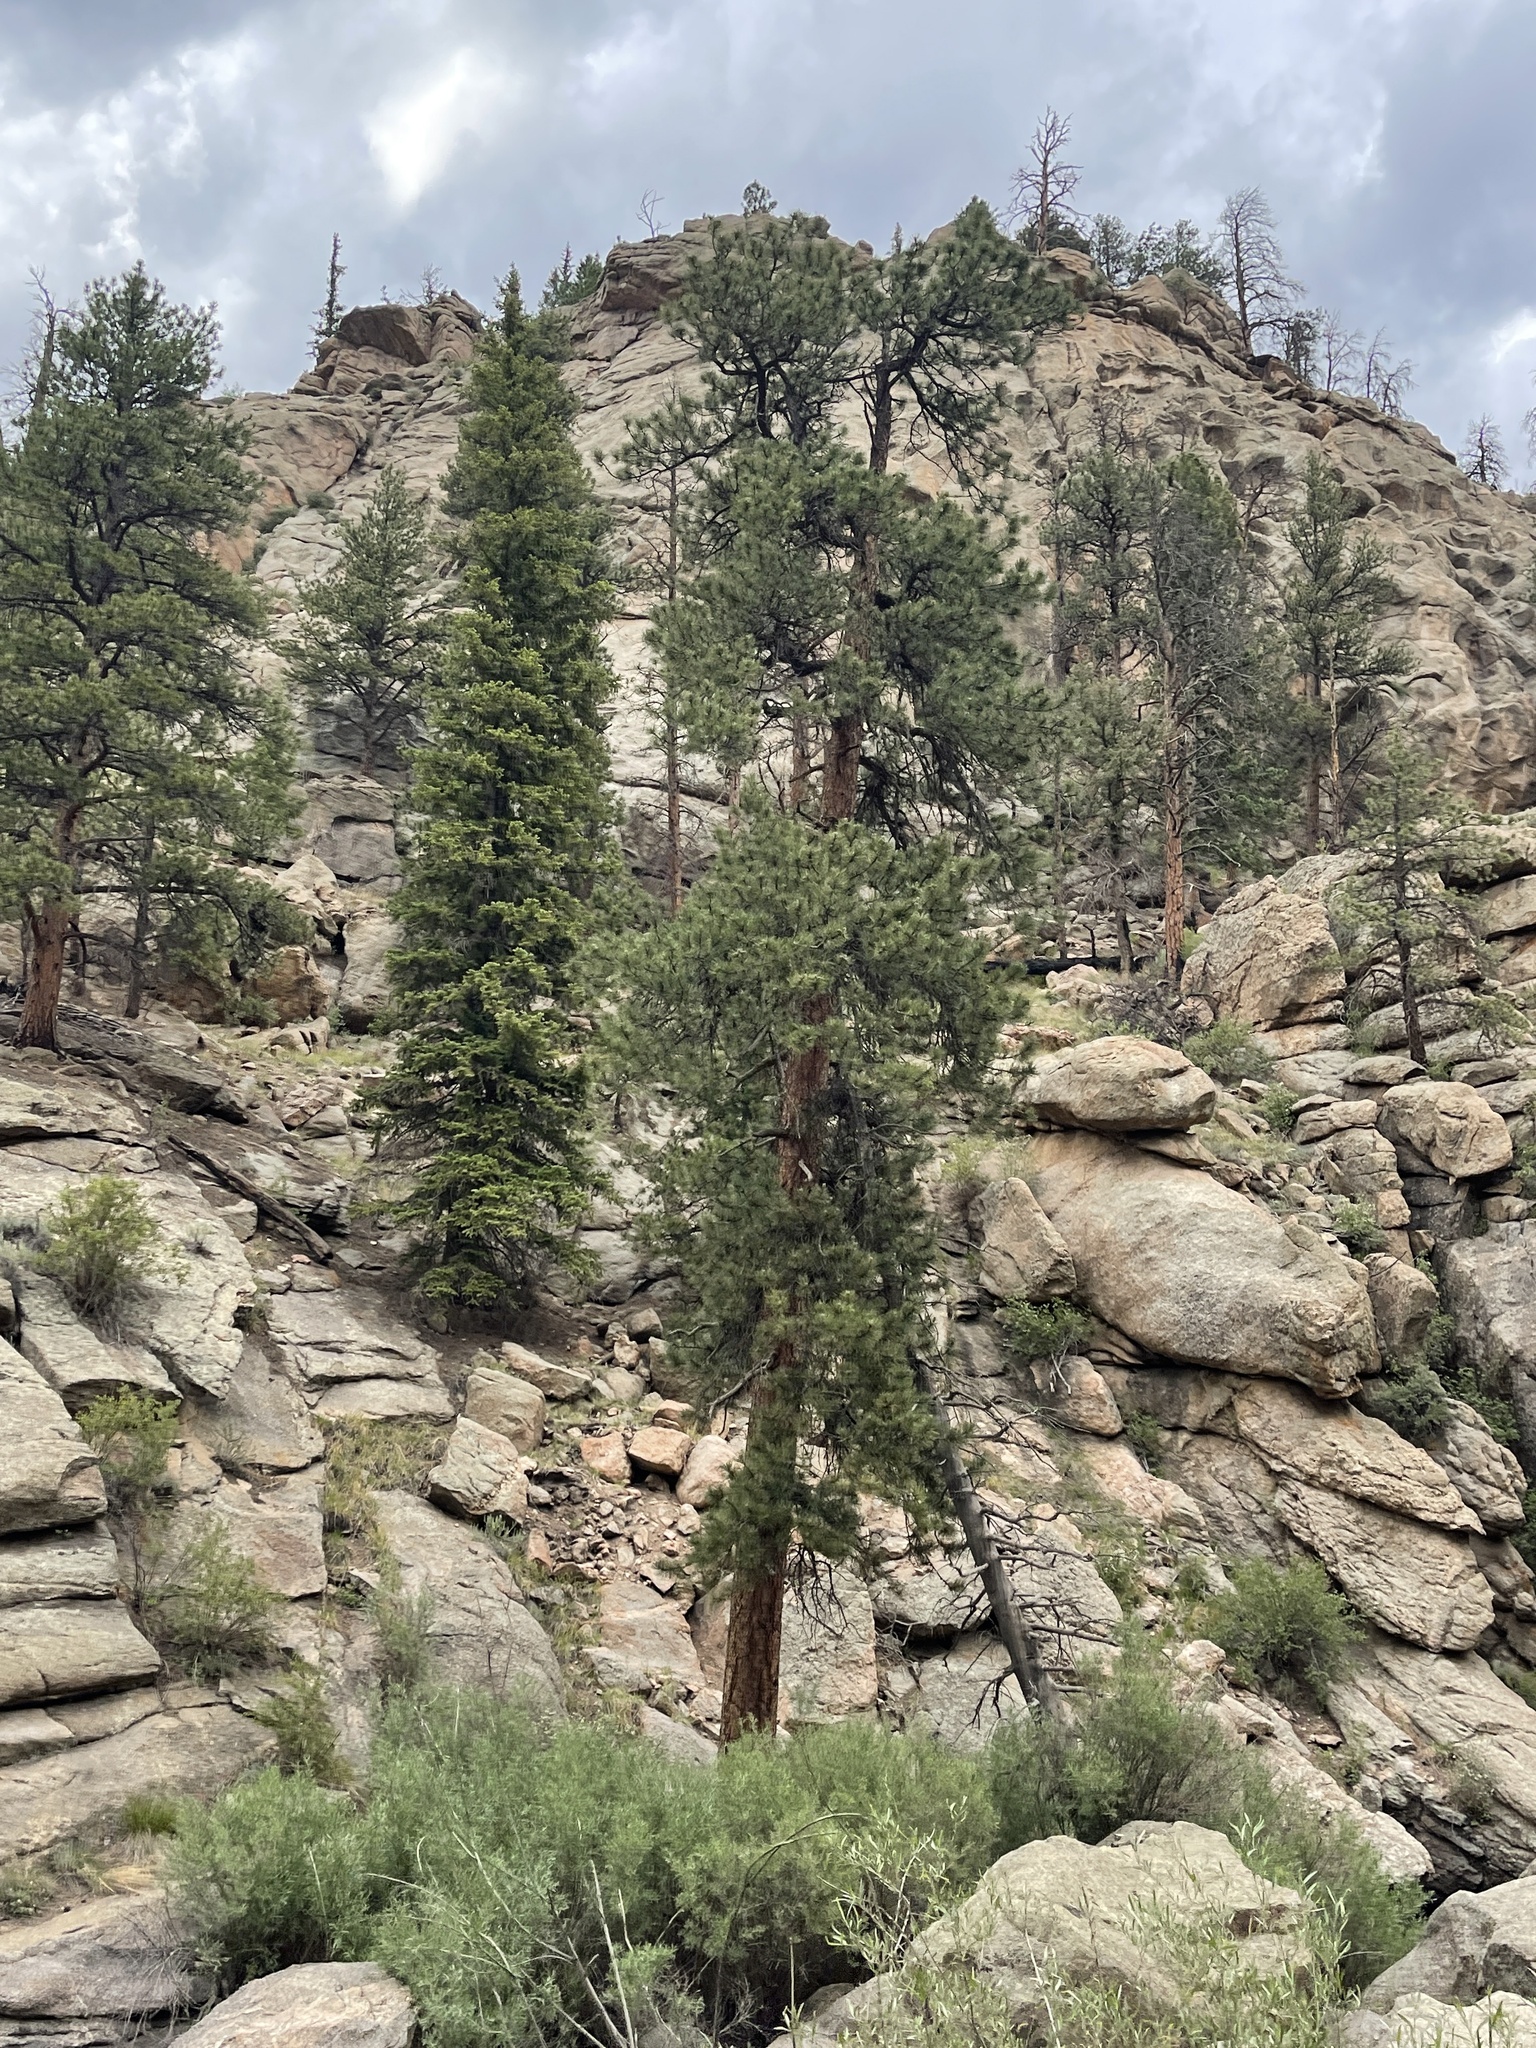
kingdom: Plantae
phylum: Tracheophyta
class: Pinopsida
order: Pinales
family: Pinaceae
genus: Pinus
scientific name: Pinus ponderosa
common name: Western yellow-pine
